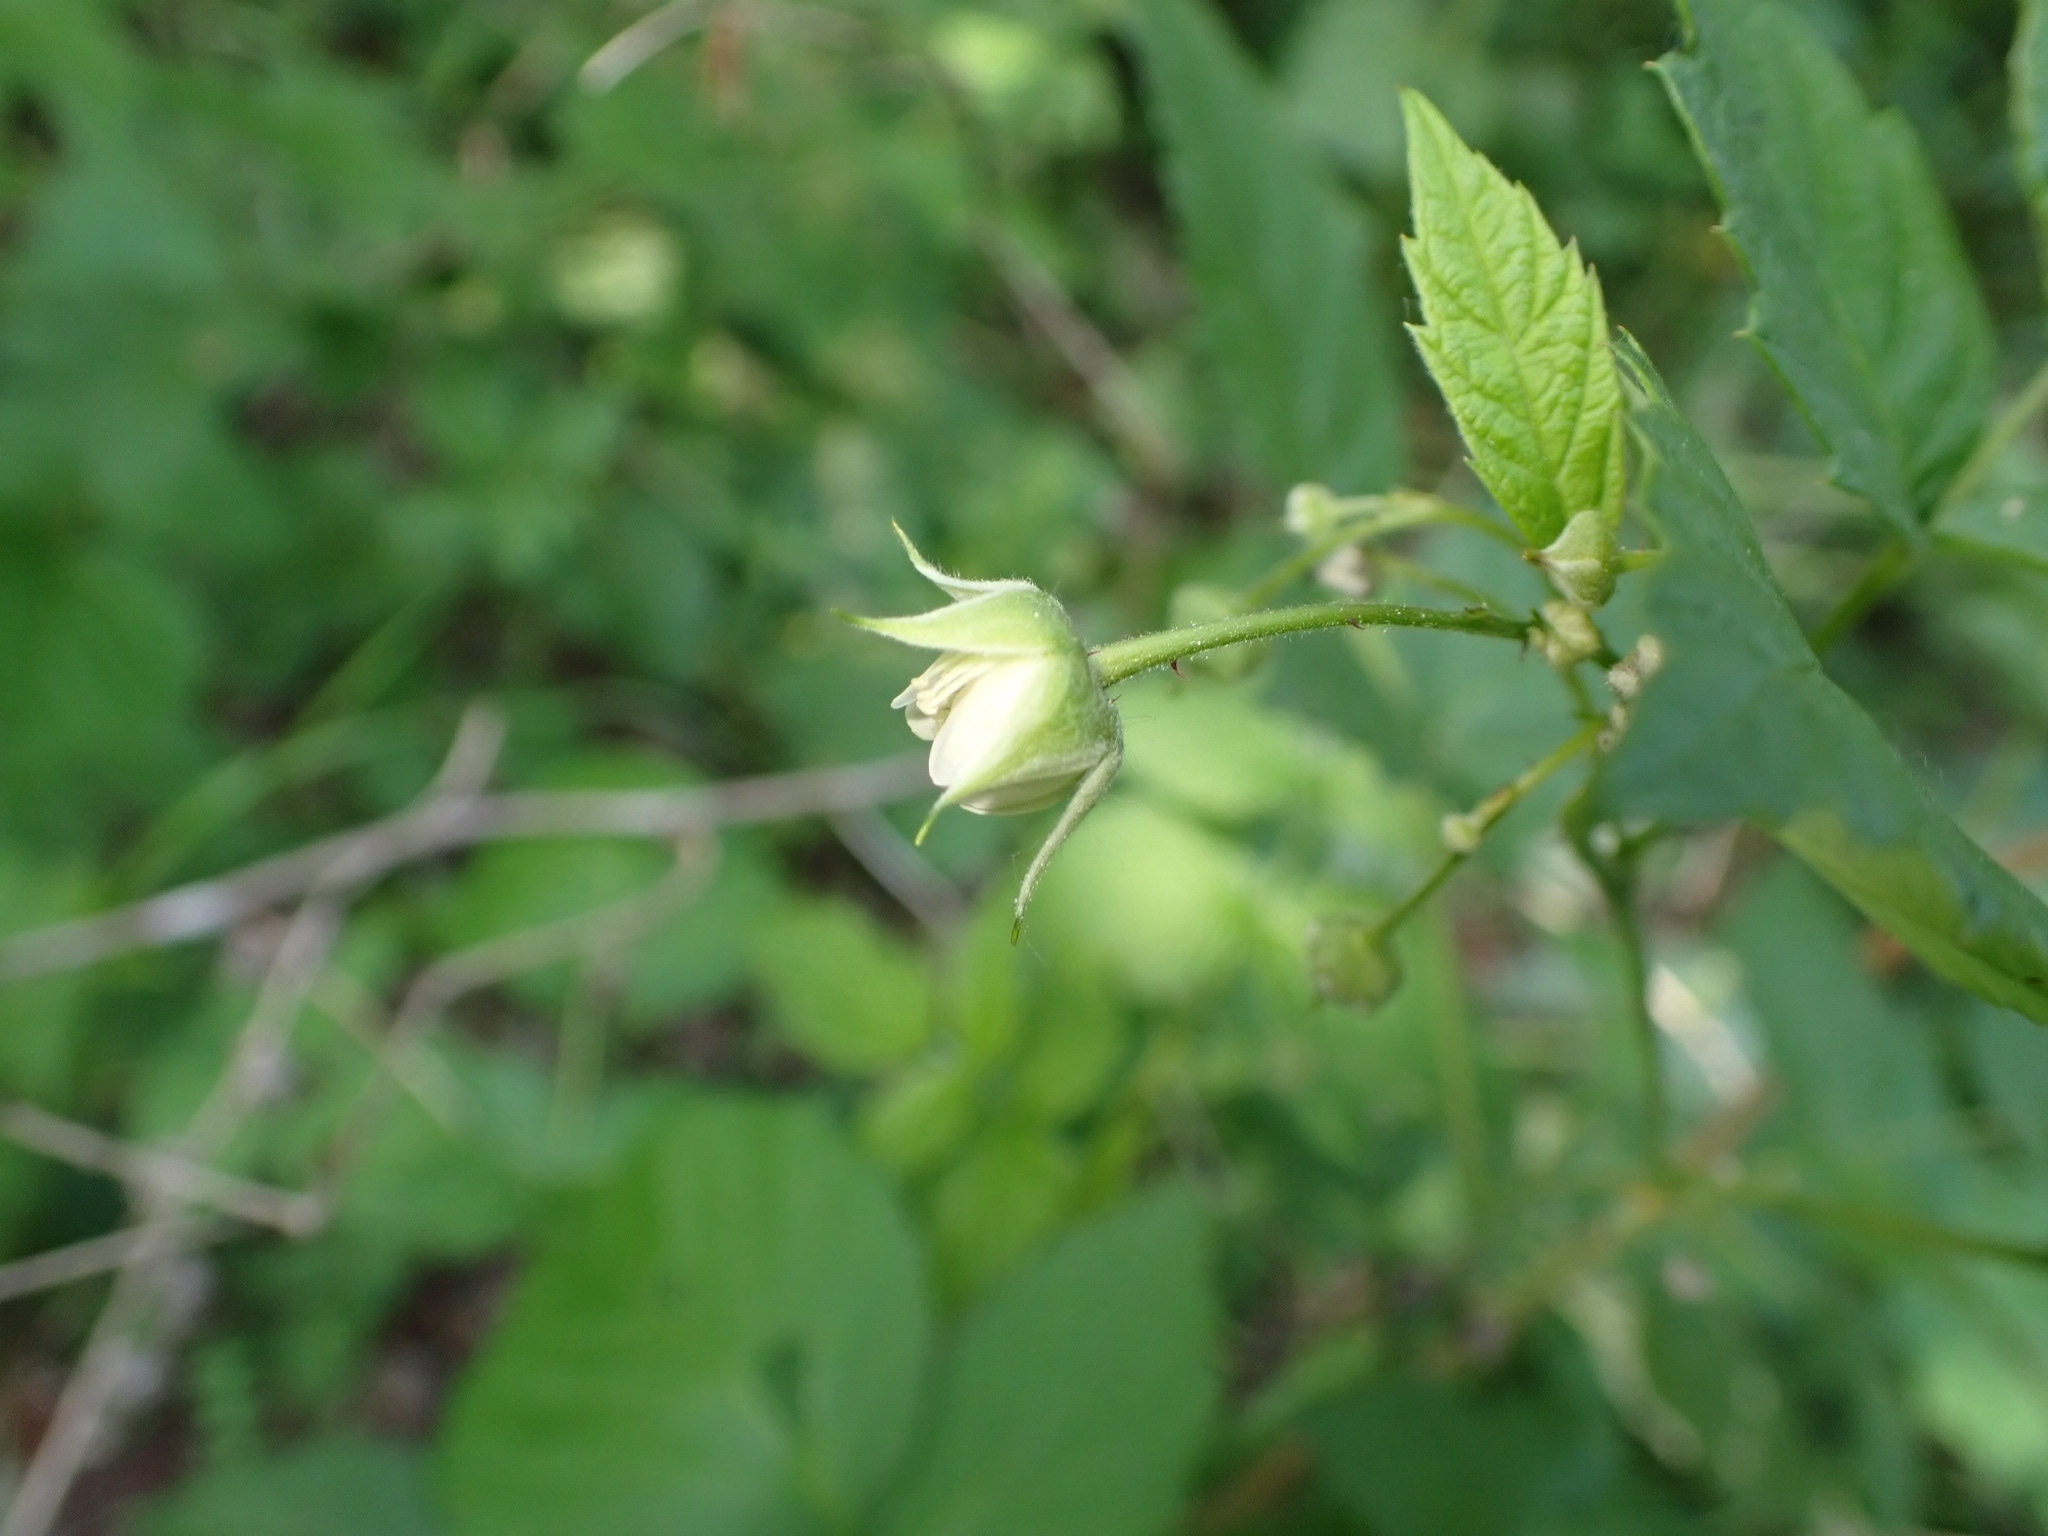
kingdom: Plantae
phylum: Tracheophyta
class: Magnoliopsida
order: Rosales
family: Rosaceae
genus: Rubus
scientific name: Rubus idaeus
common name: Raspberry
